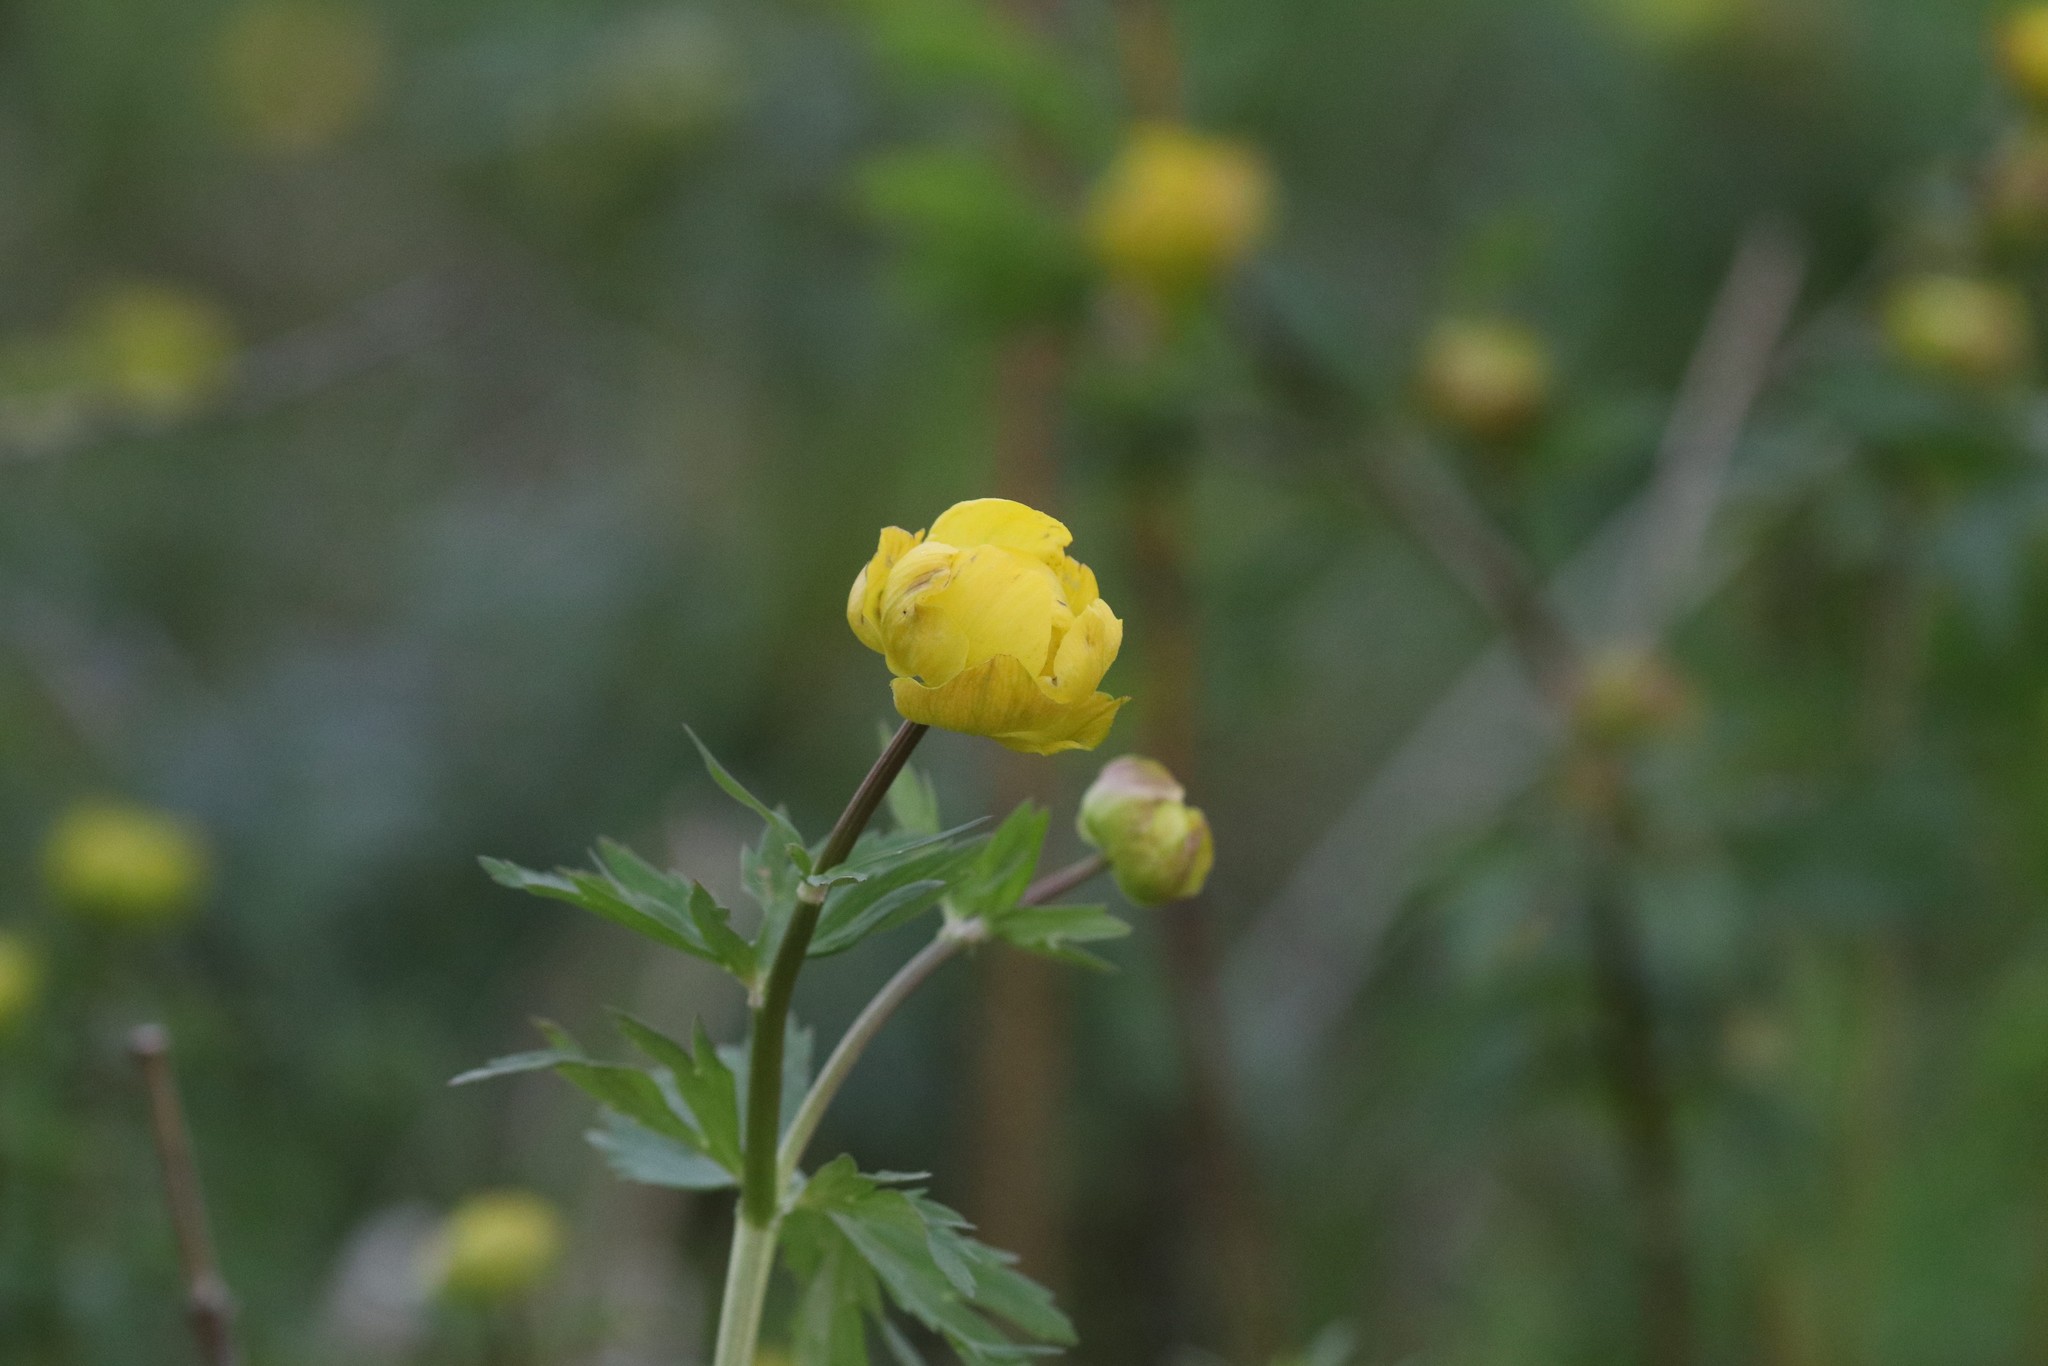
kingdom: Plantae
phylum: Tracheophyta
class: Magnoliopsida
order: Ranunculales
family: Ranunculaceae
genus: Trollius
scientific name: Trollius europaeus
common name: European globeflower
